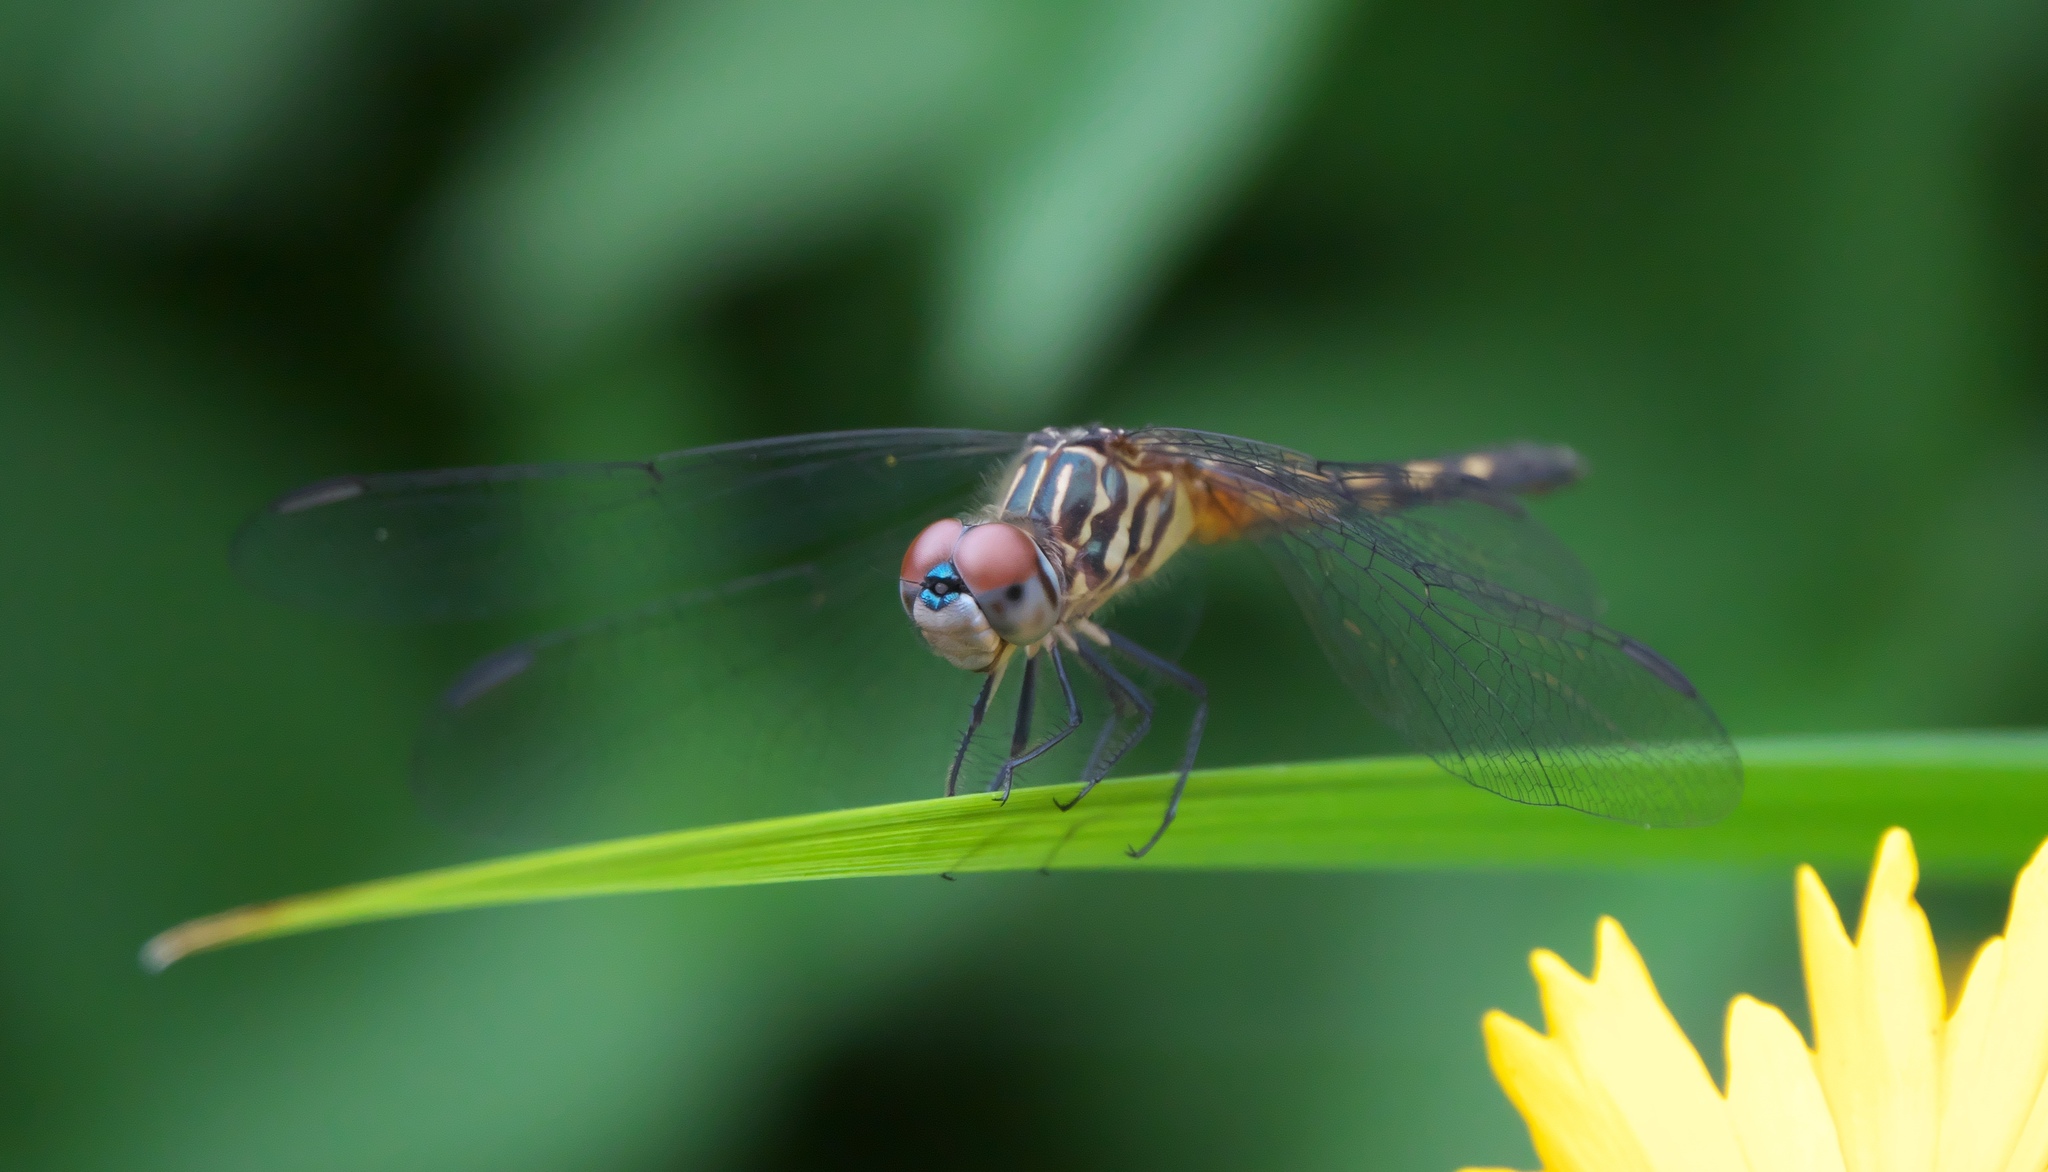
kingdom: Animalia
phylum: Arthropoda
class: Insecta
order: Odonata
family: Libellulidae
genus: Pachydiplax
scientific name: Pachydiplax longipennis
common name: Blue dasher
